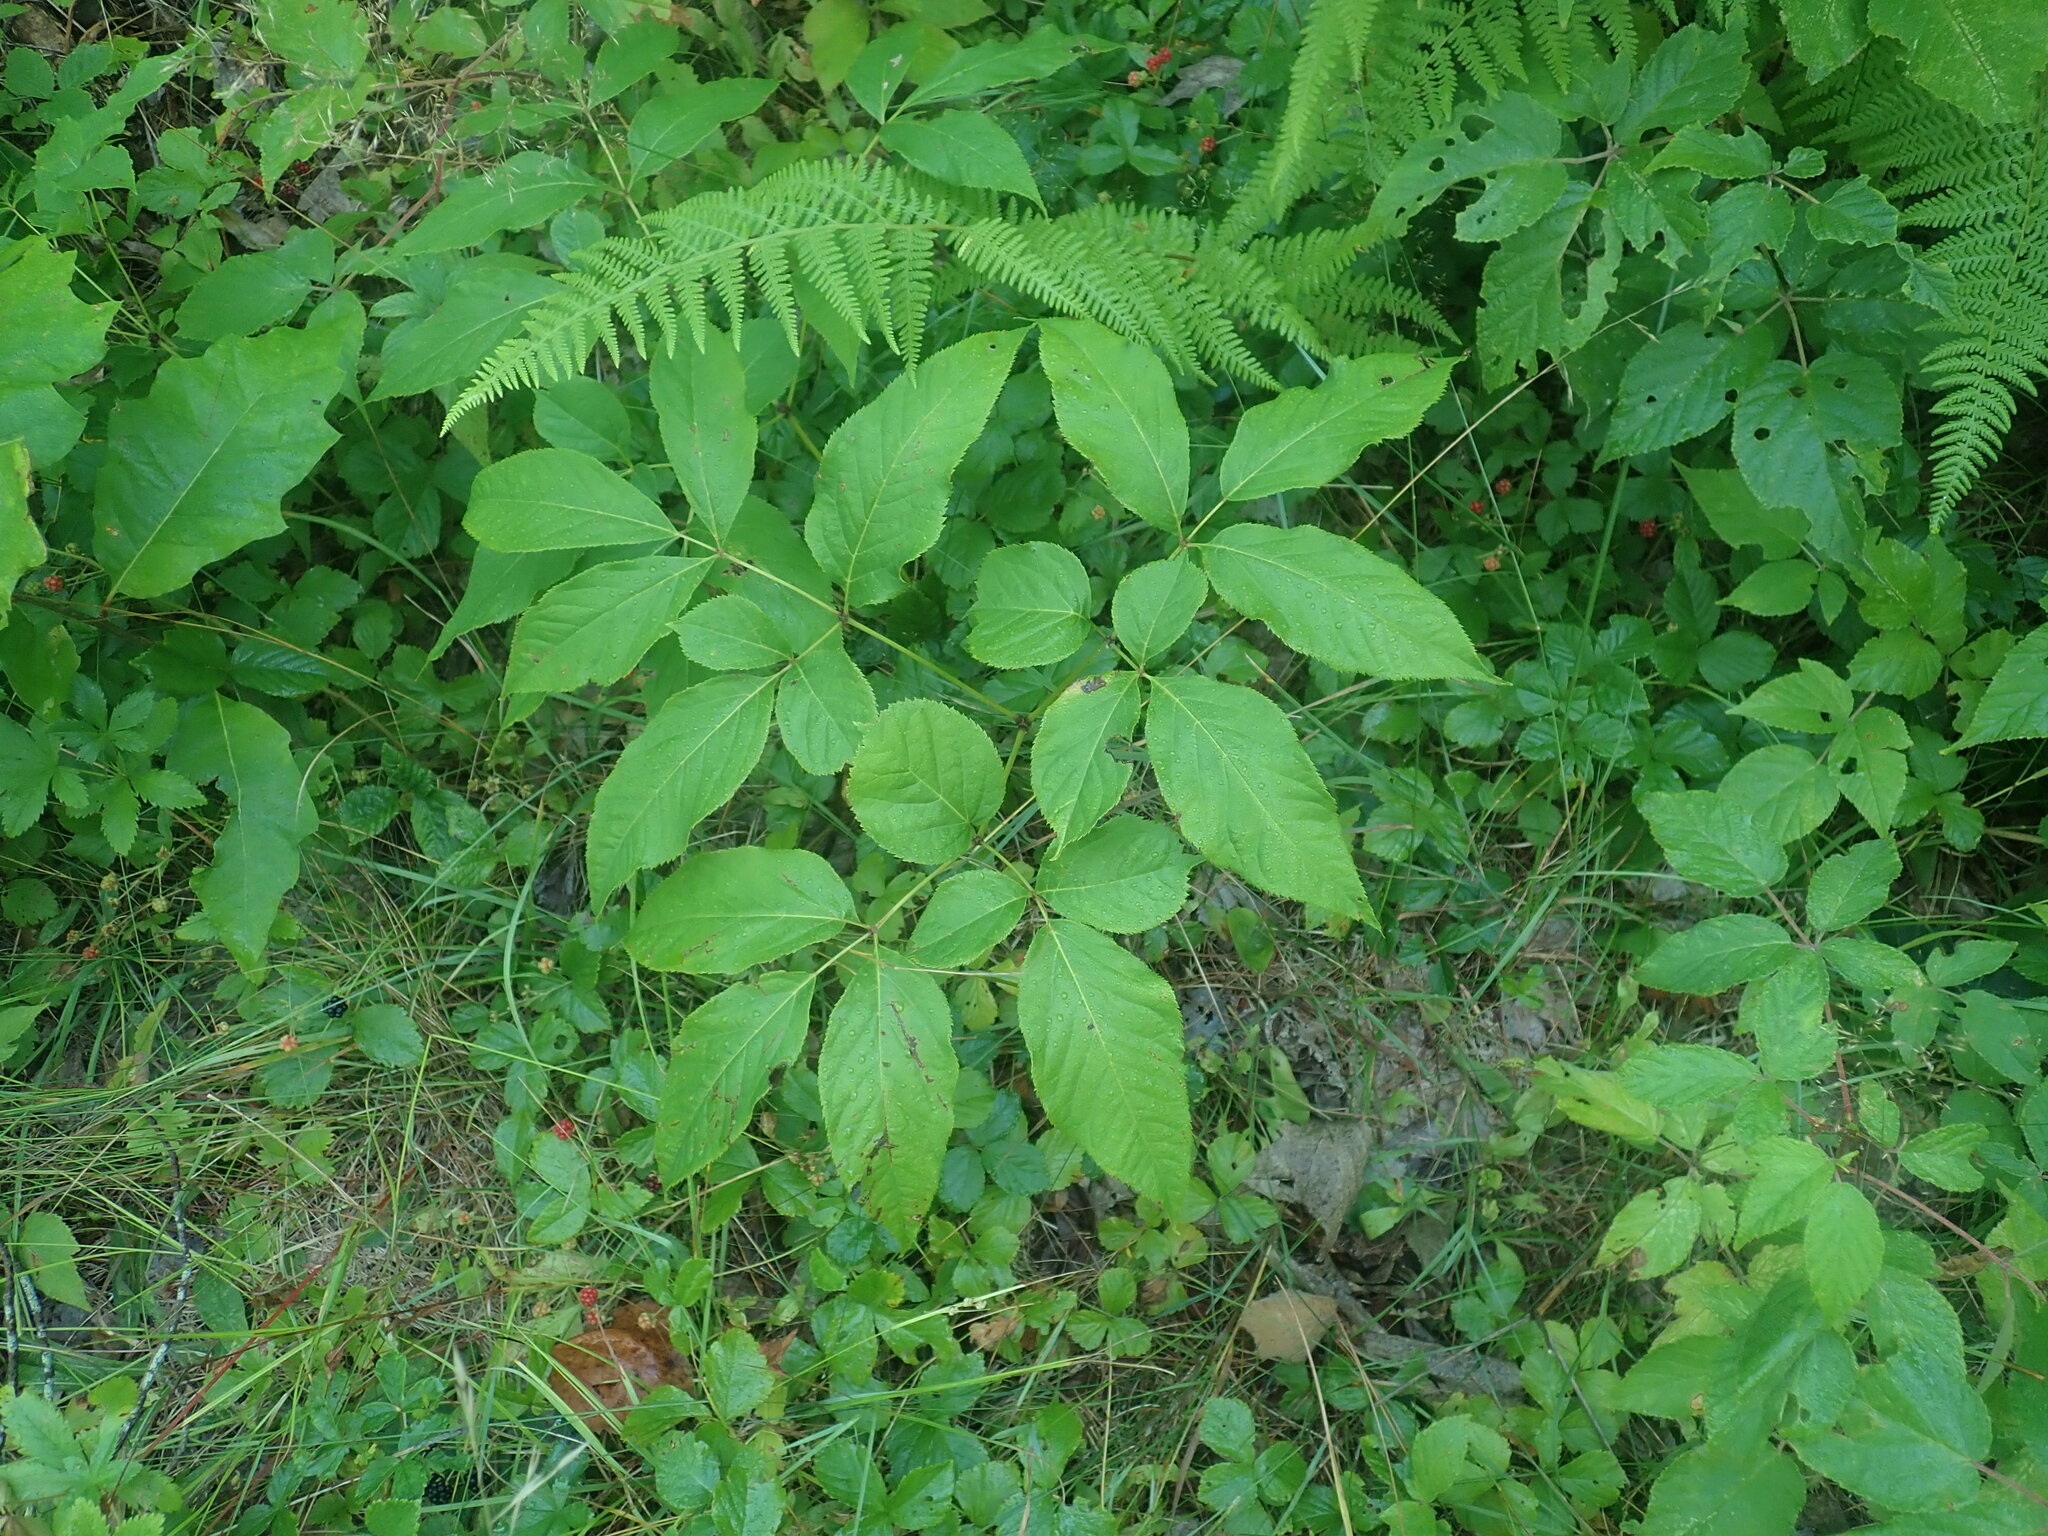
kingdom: Plantae
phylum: Tracheophyta
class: Magnoliopsida
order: Apiales
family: Araliaceae
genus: Aralia
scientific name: Aralia nudicaulis
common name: Wild sarsaparilla
